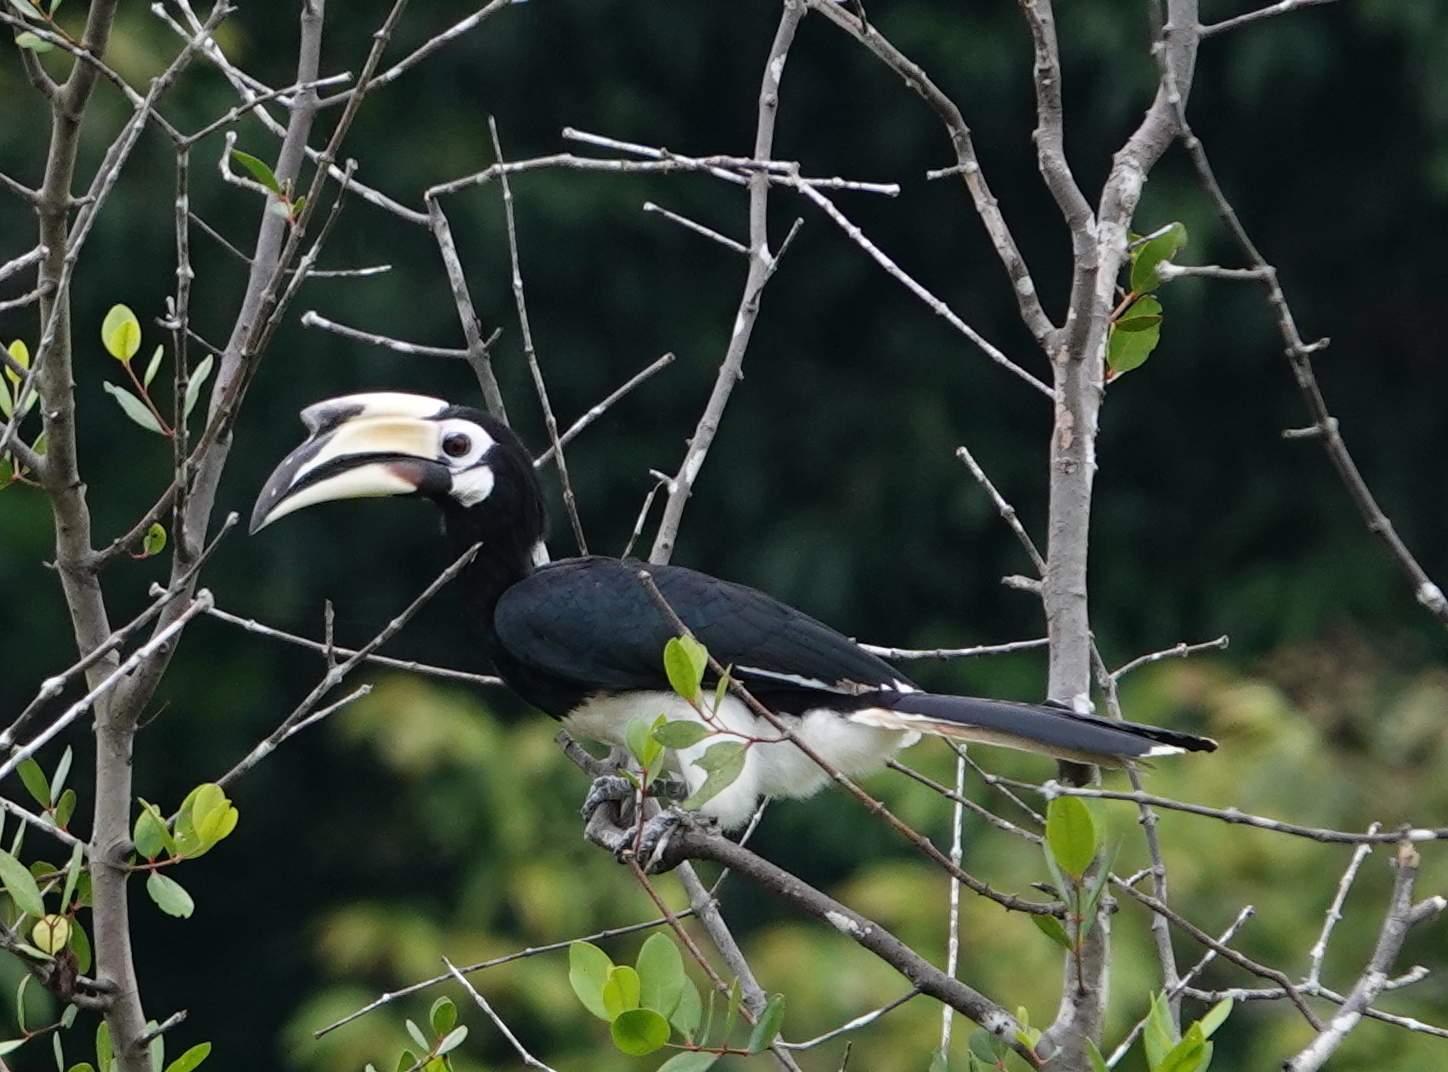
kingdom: Animalia
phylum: Chordata
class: Aves
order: Bucerotiformes
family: Bucerotidae
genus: Anthracoceros
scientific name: Anthracoceros albirostris
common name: Oriental pied-hornbill
